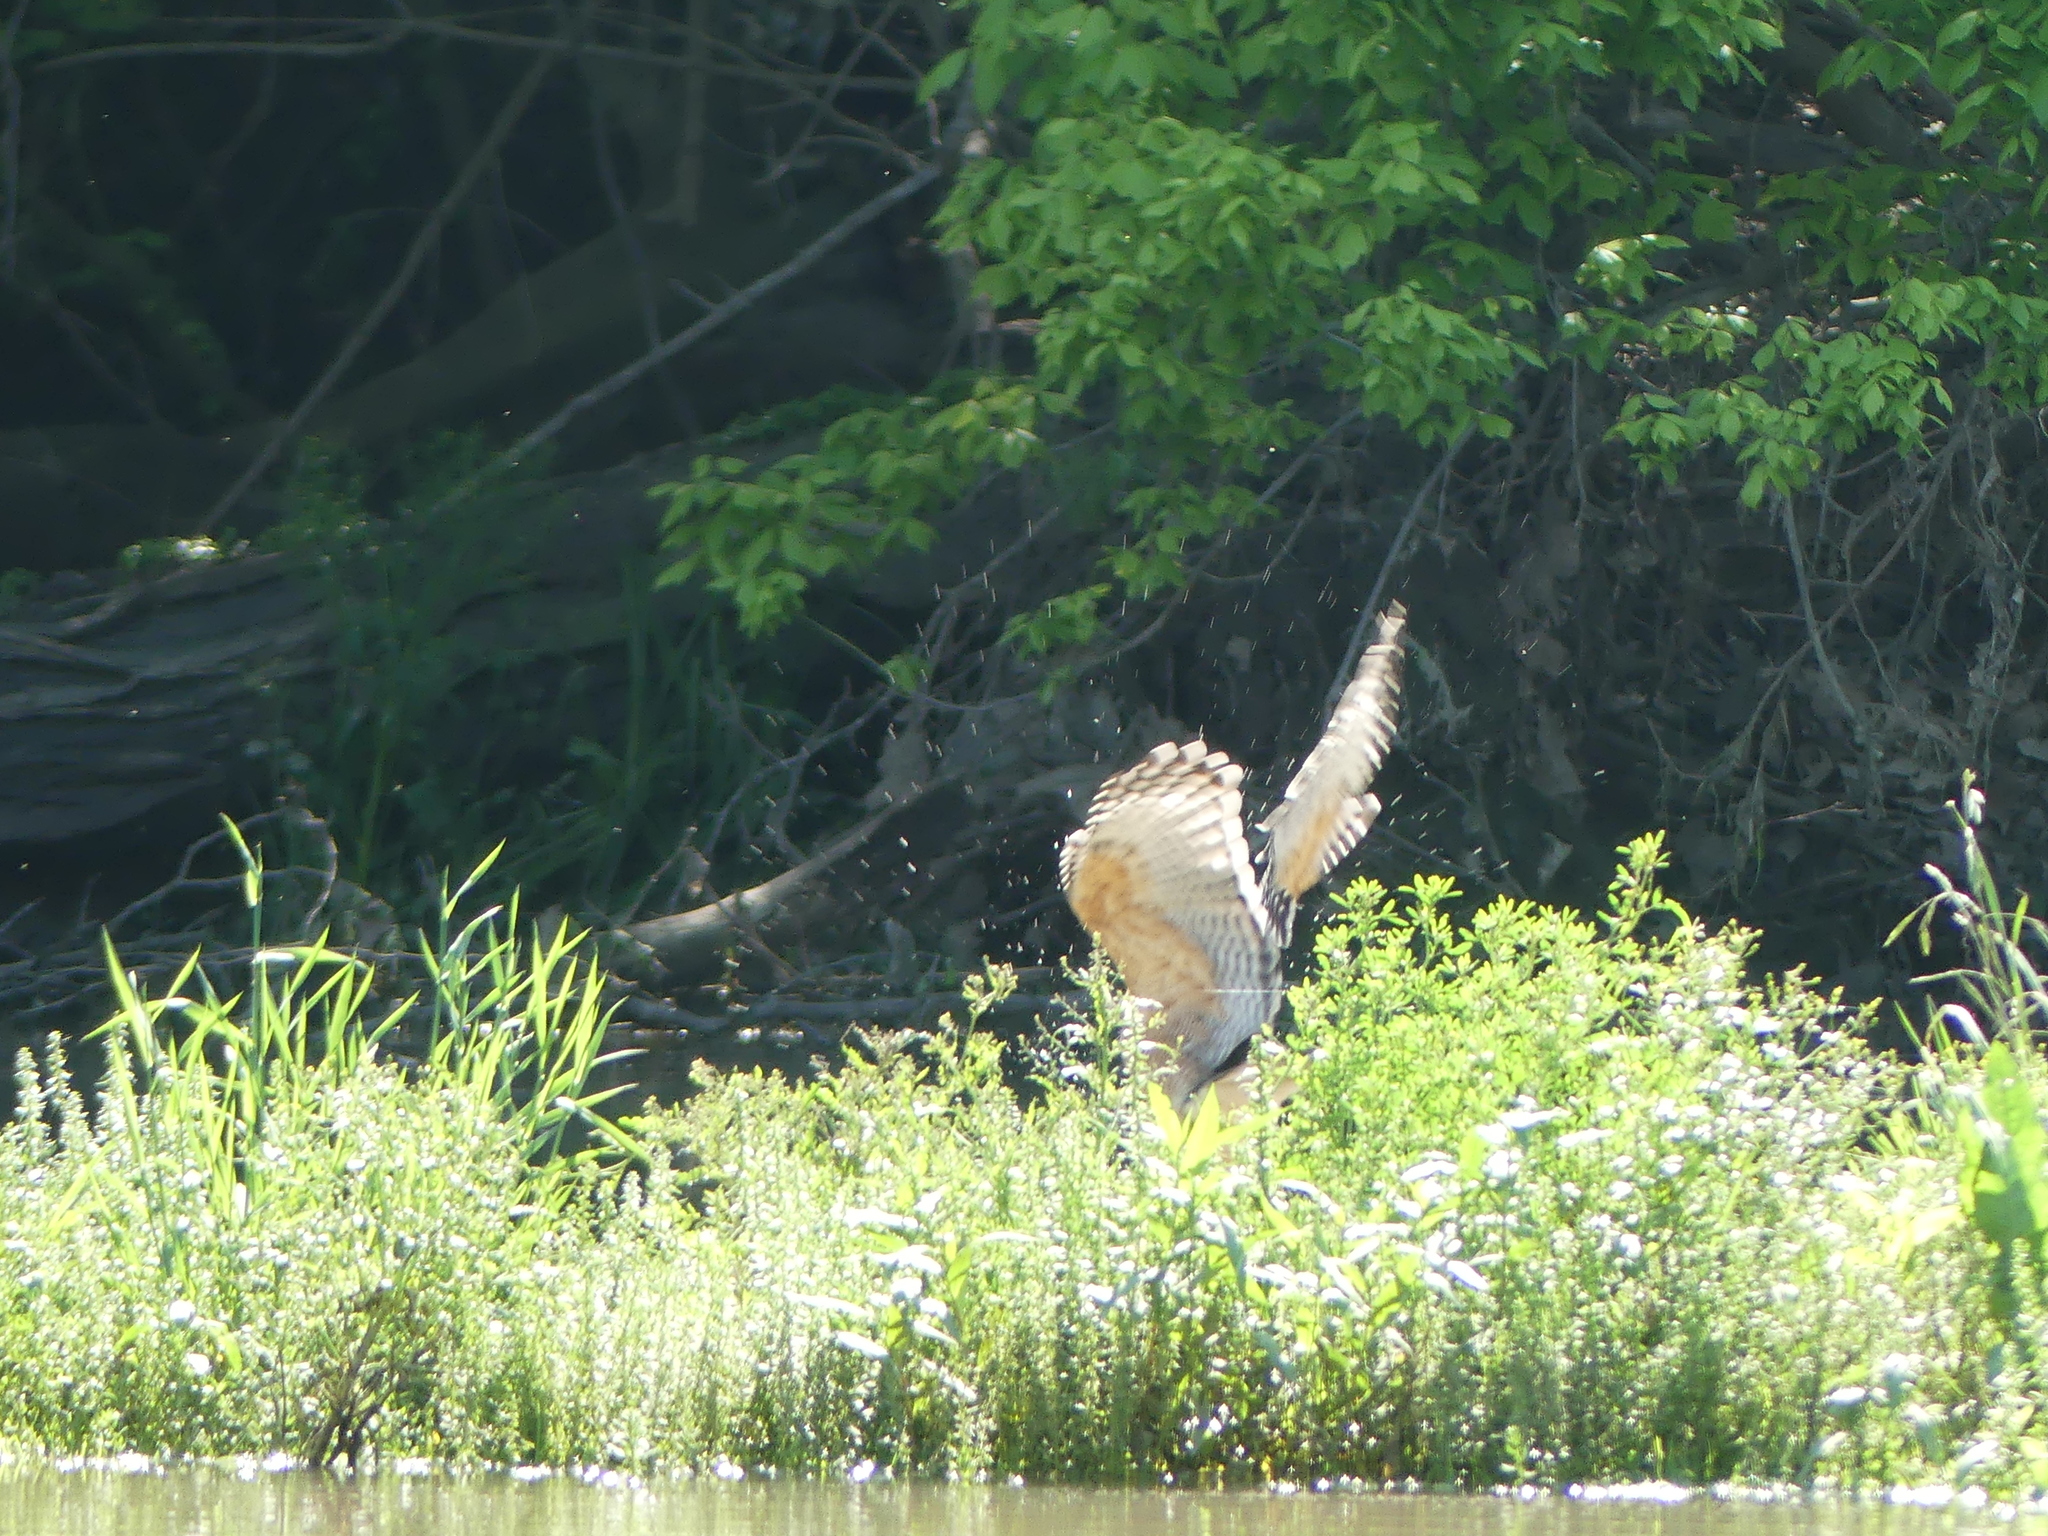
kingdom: Animalia
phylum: Chordata
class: Aves
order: Accipitriformes
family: Accipitridae
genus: Buteo
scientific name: Buteo lineatus
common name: Red-shouldered hawk
